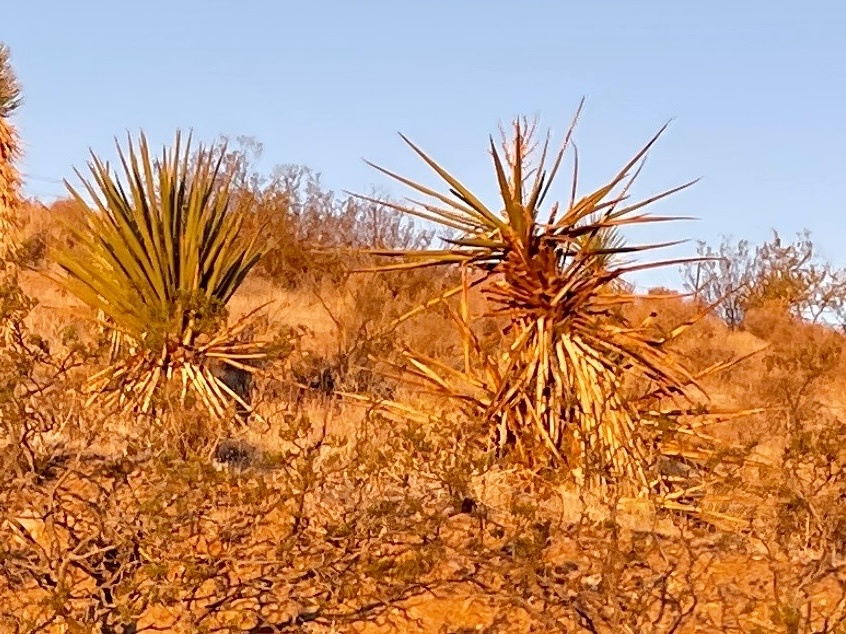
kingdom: Plantae
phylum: Tracheophyta
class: Liliopsida
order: Asparagales
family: Asparagaceae
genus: Yucca
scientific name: Yucca schidigera
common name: Mojave yucca
